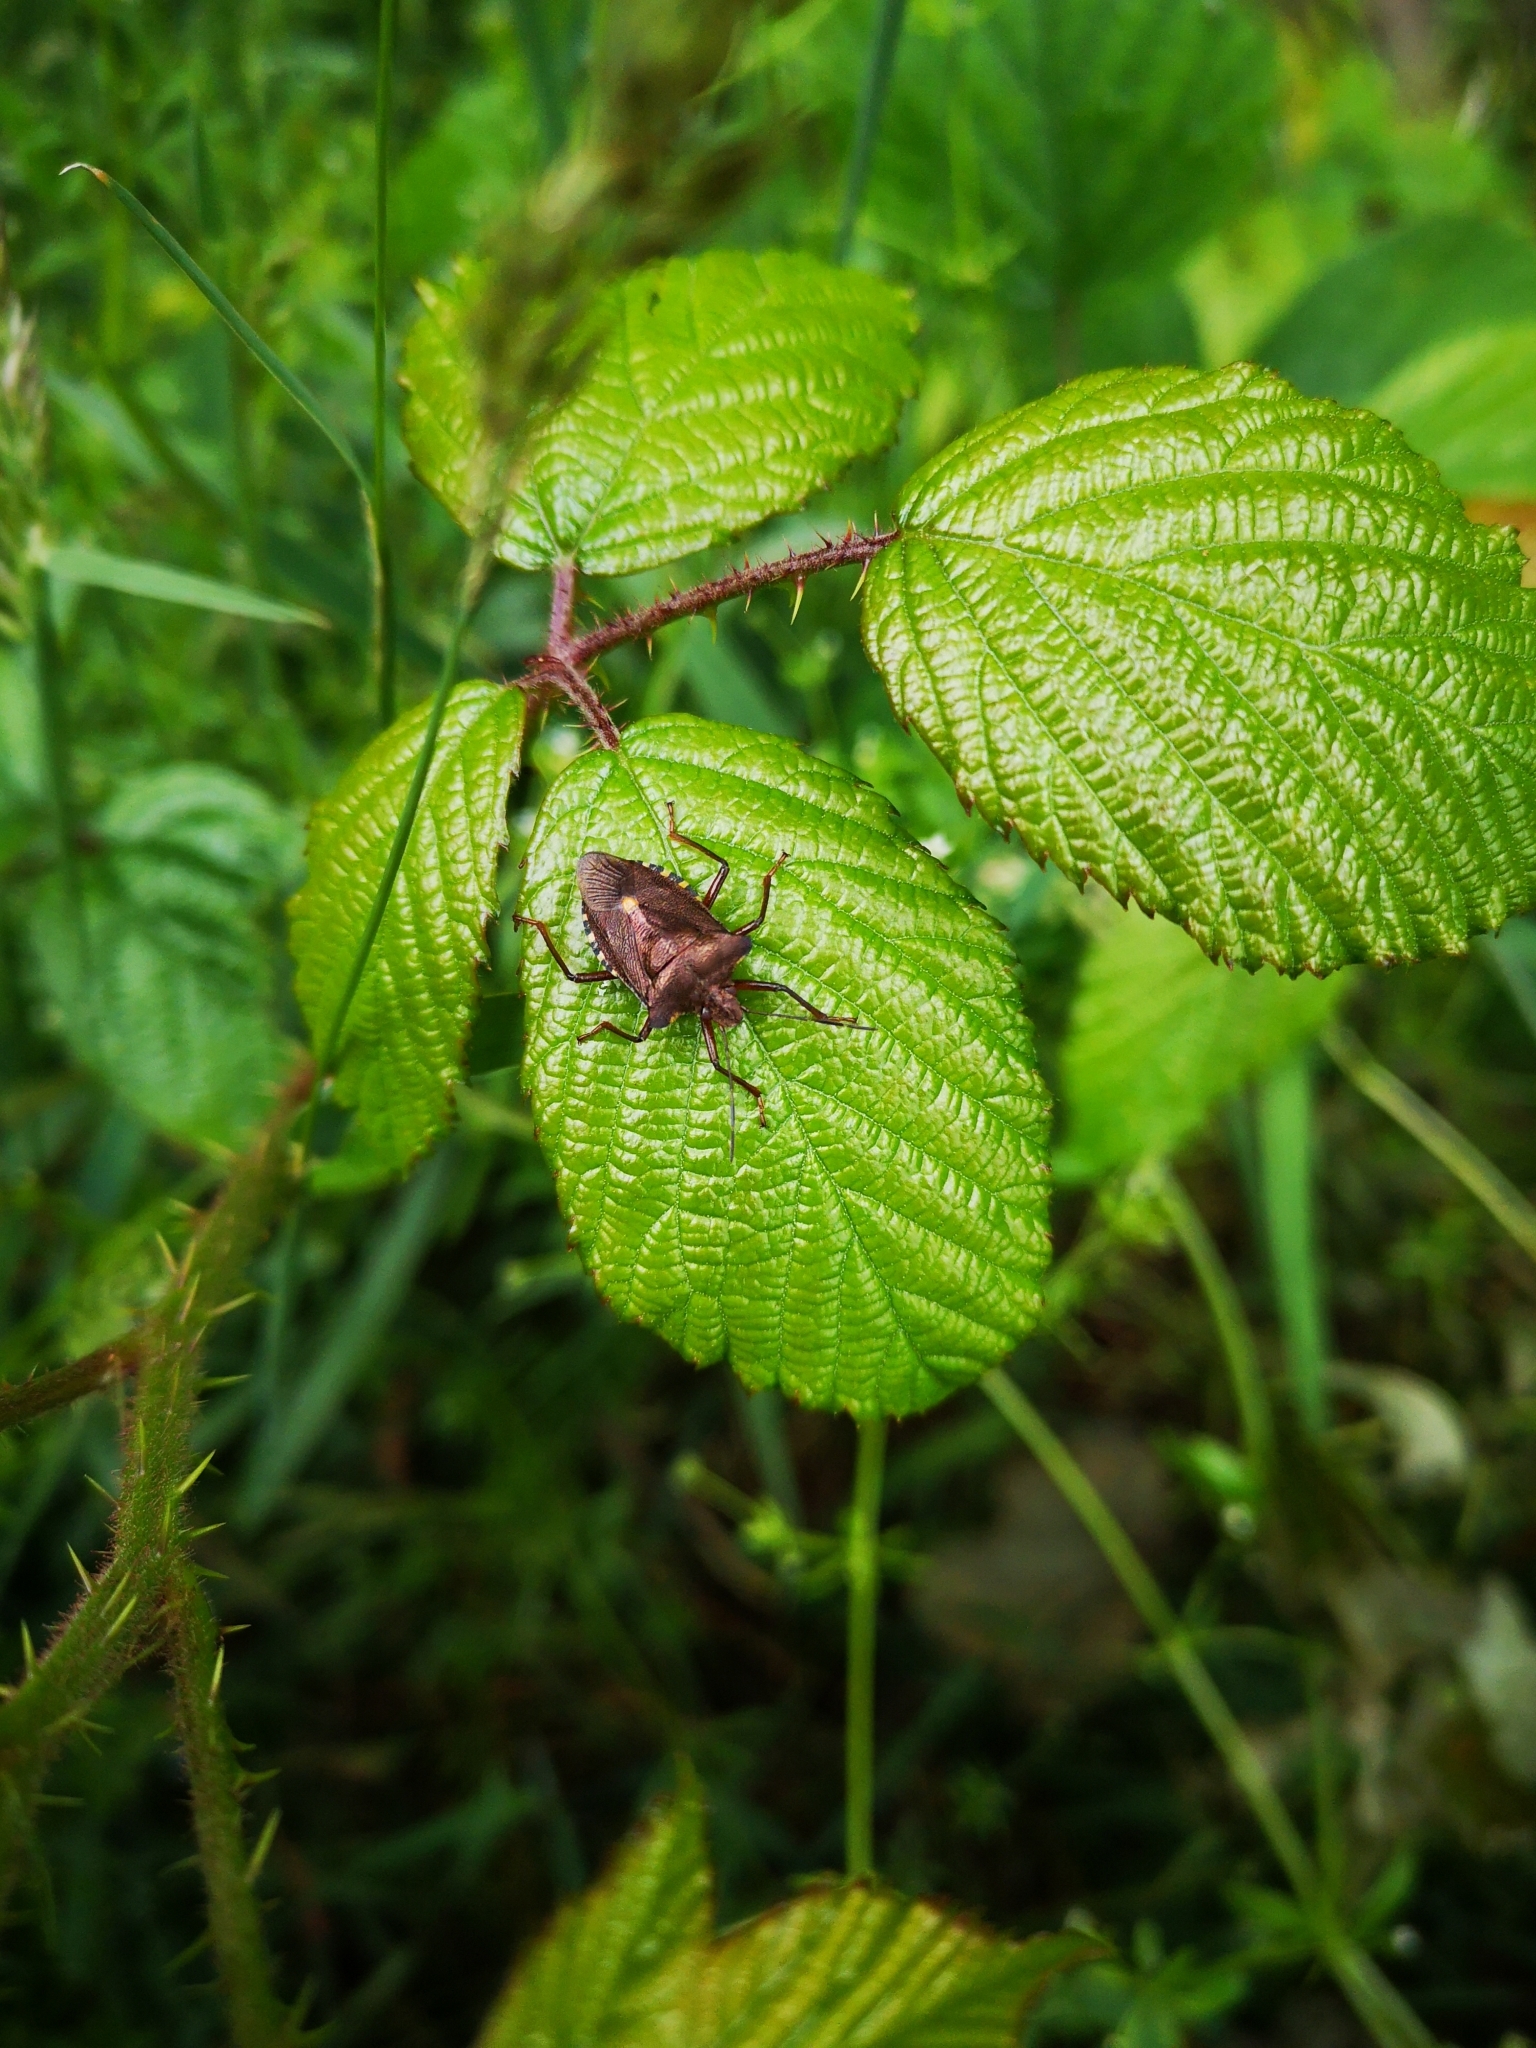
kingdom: Animalia
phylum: Arthropoda
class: Insecta
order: Hemiptera
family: Pentatomidae
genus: Pentatoma
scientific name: Pentatoma rufipes
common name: Forest bug
